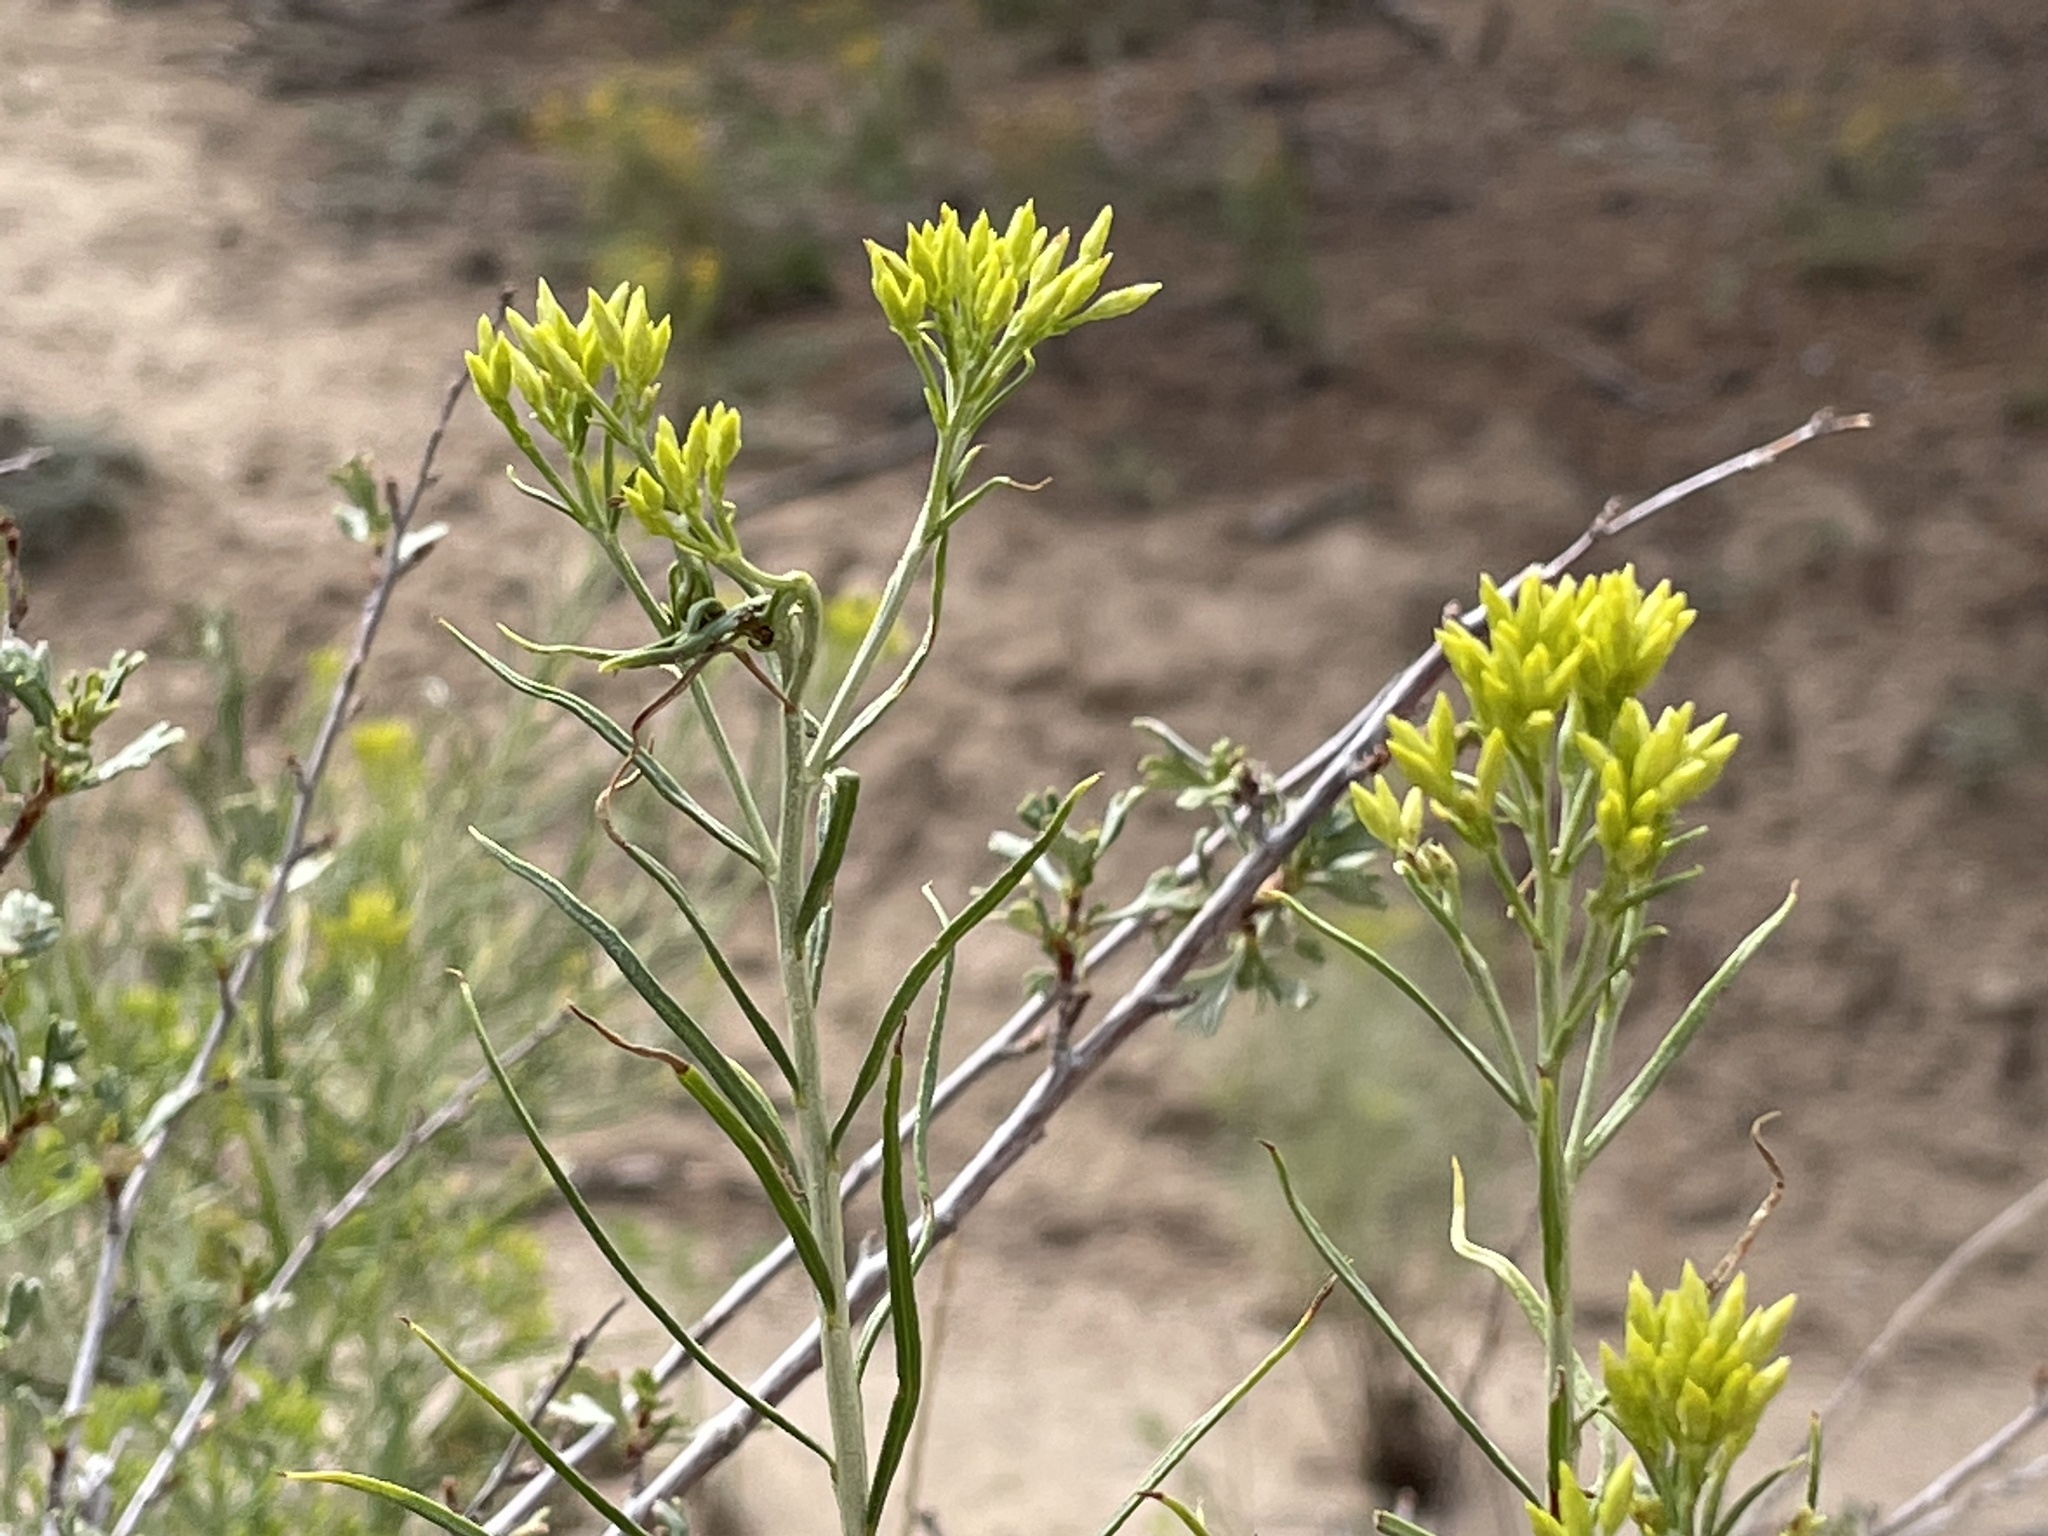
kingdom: Plantae
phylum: Tracheophyta
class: Magnoliopsida
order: Asterales
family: Asteraceae
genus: Ericameria
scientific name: Ericameria nauseosa
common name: Rubber rabbitbrush
